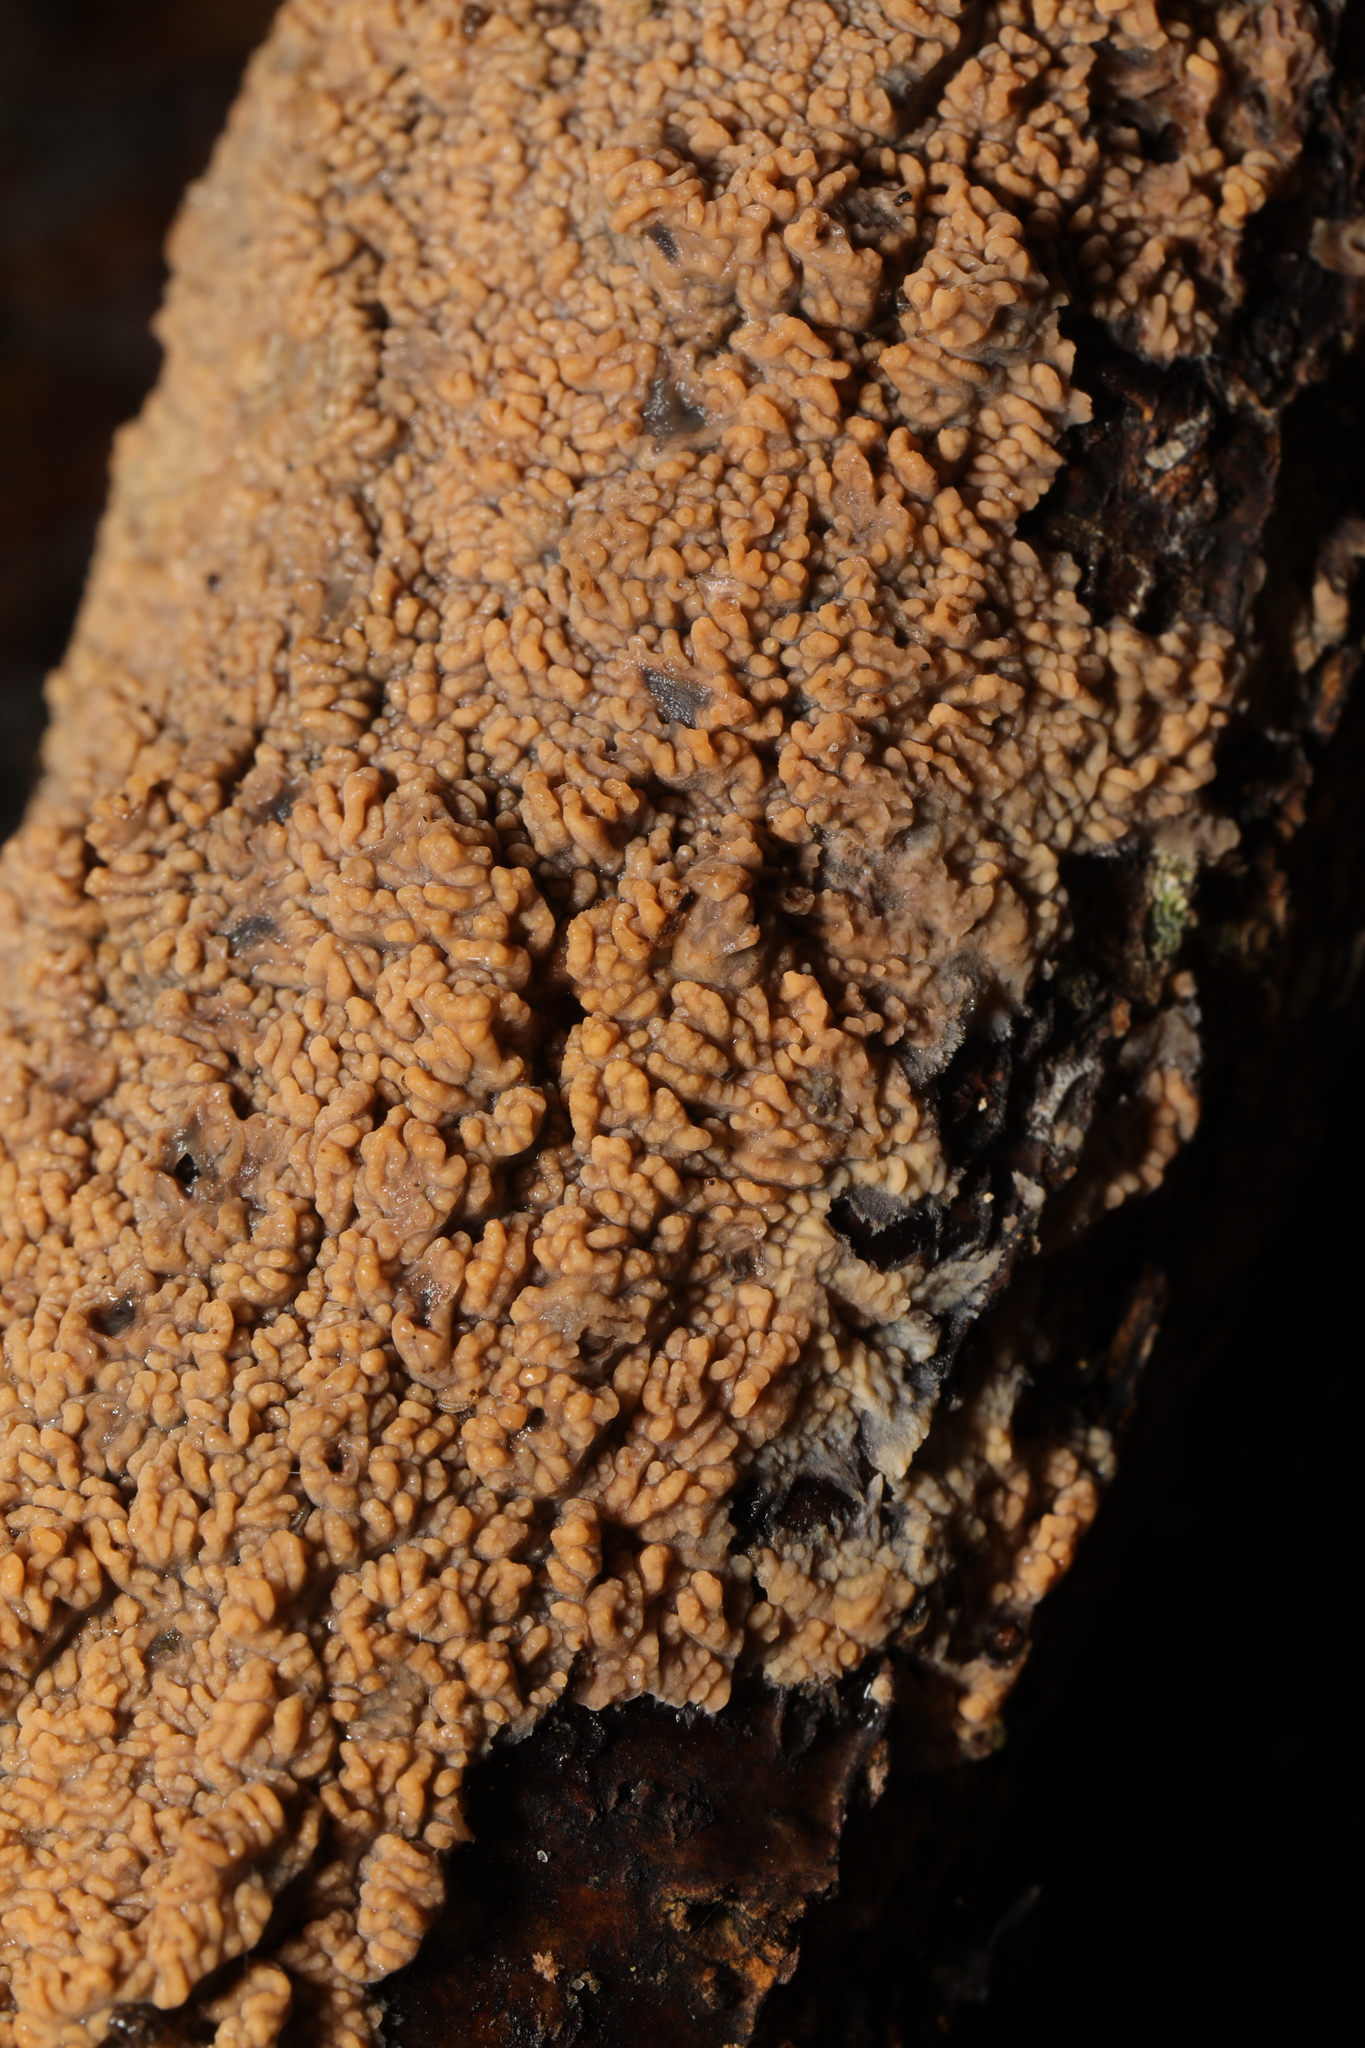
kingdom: Fungi
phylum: Basidiomycota
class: Agaricomycetes
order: Polyporales
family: Meruliaceae
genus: Phlebia
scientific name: Phlebia radiata
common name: Wrinkled crust
